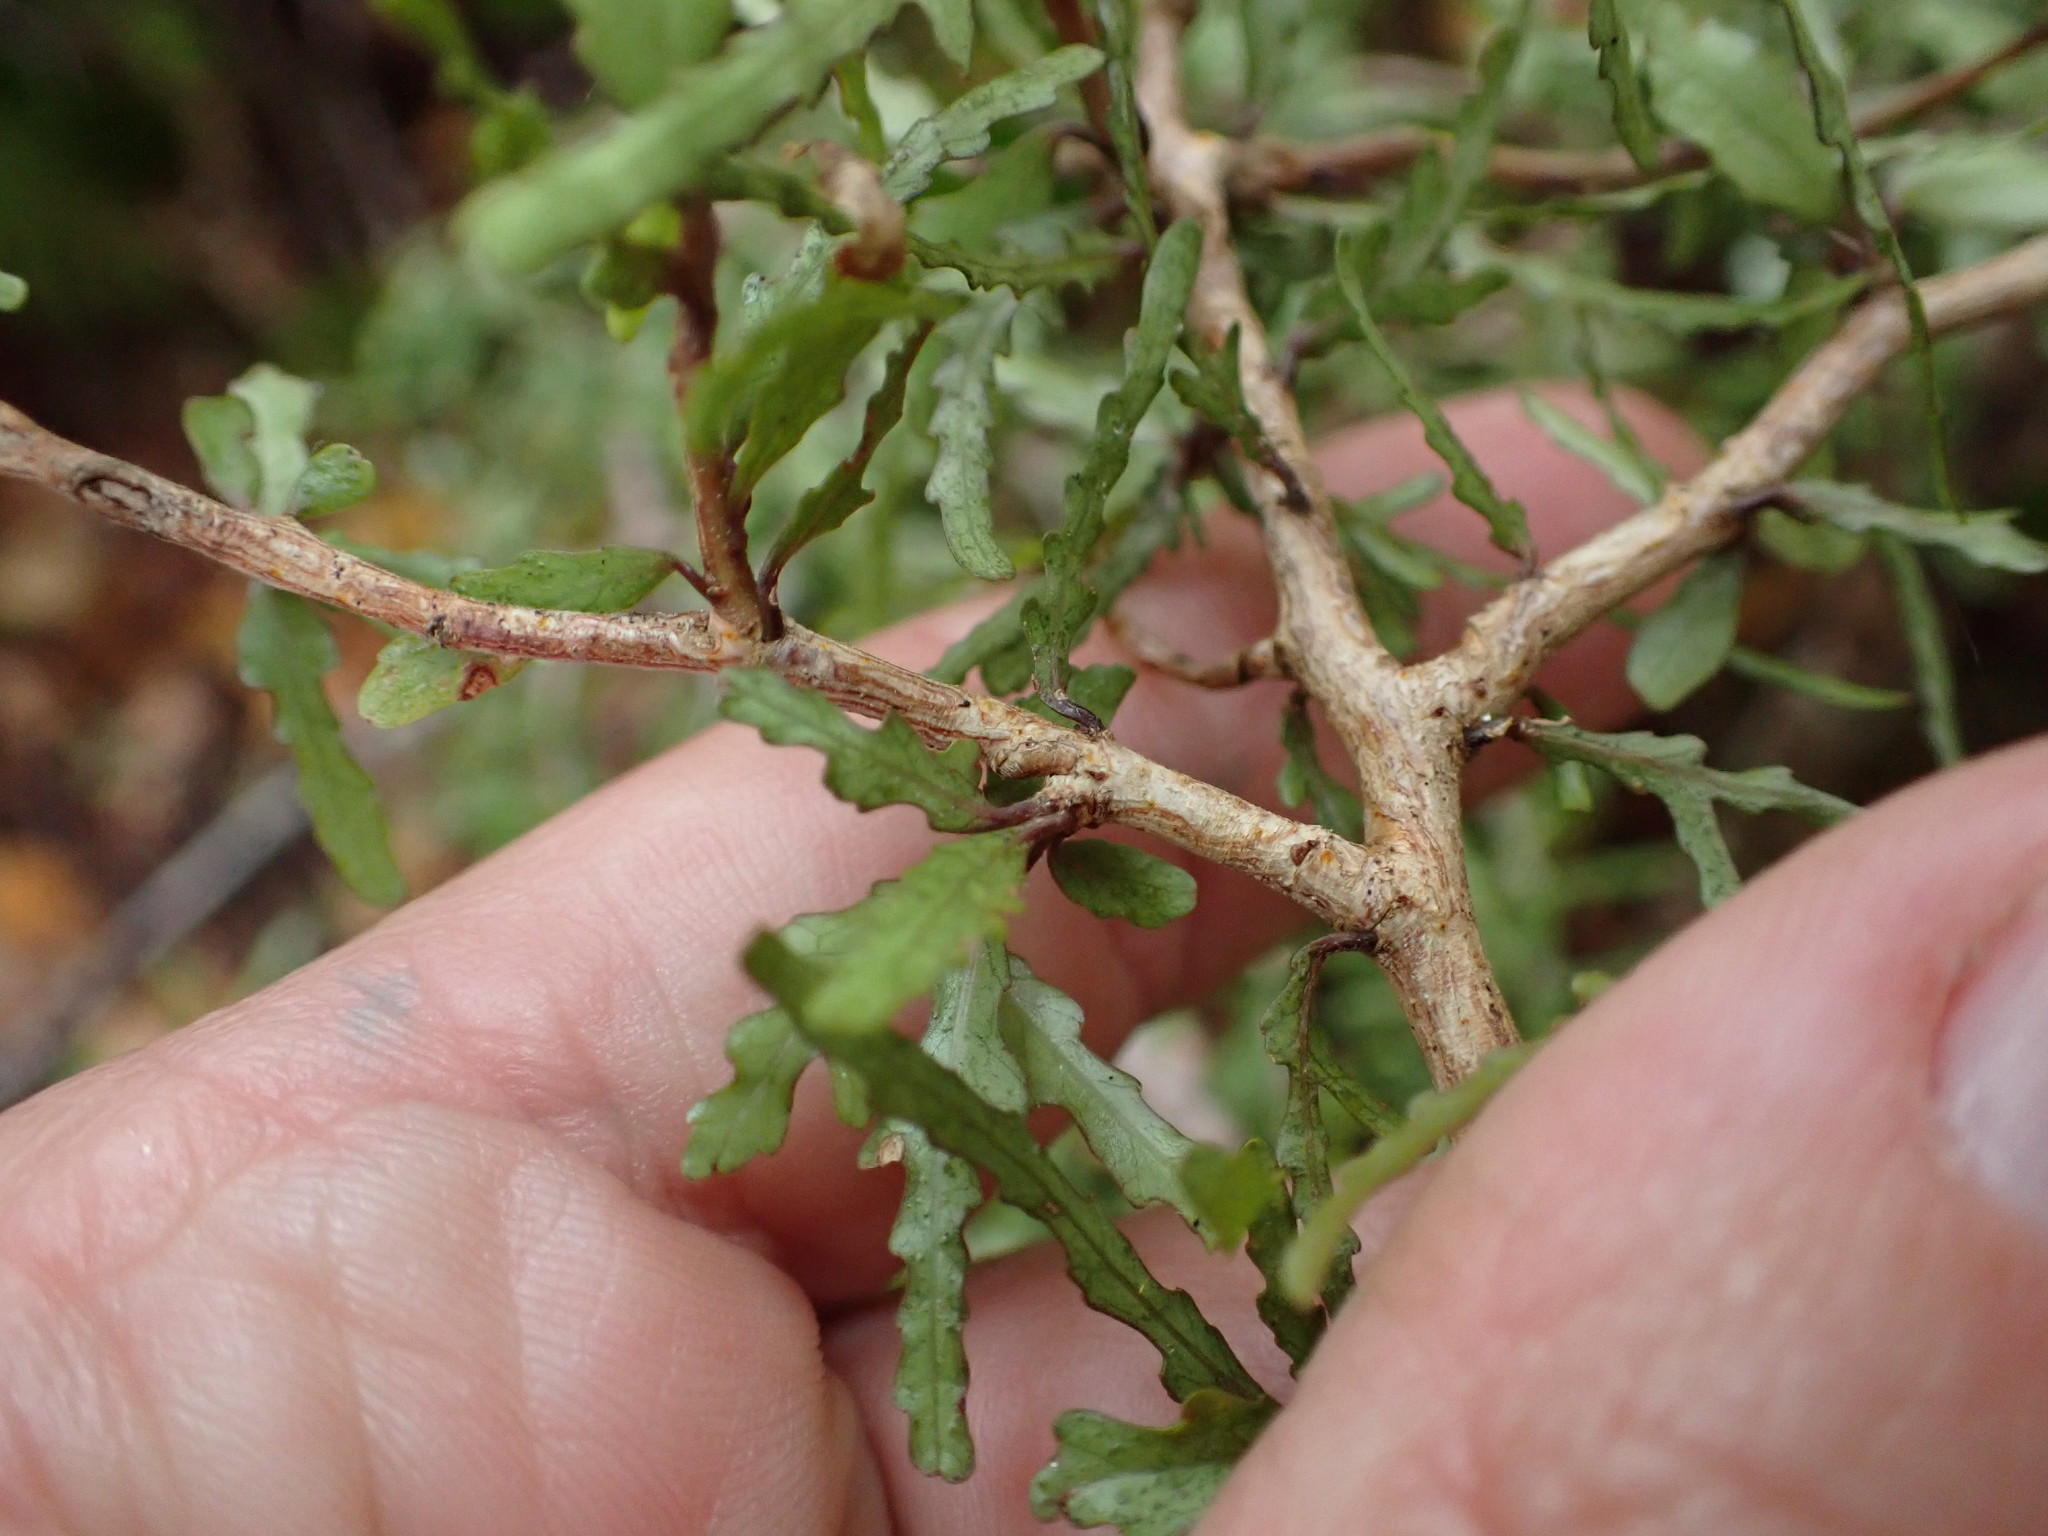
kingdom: Plantae
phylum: Tracheophyta
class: Magnoliopsida
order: Oxalidales
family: Elaeocarpaceae
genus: Elaeocarpus
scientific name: Elaeocarpus hookerianus
